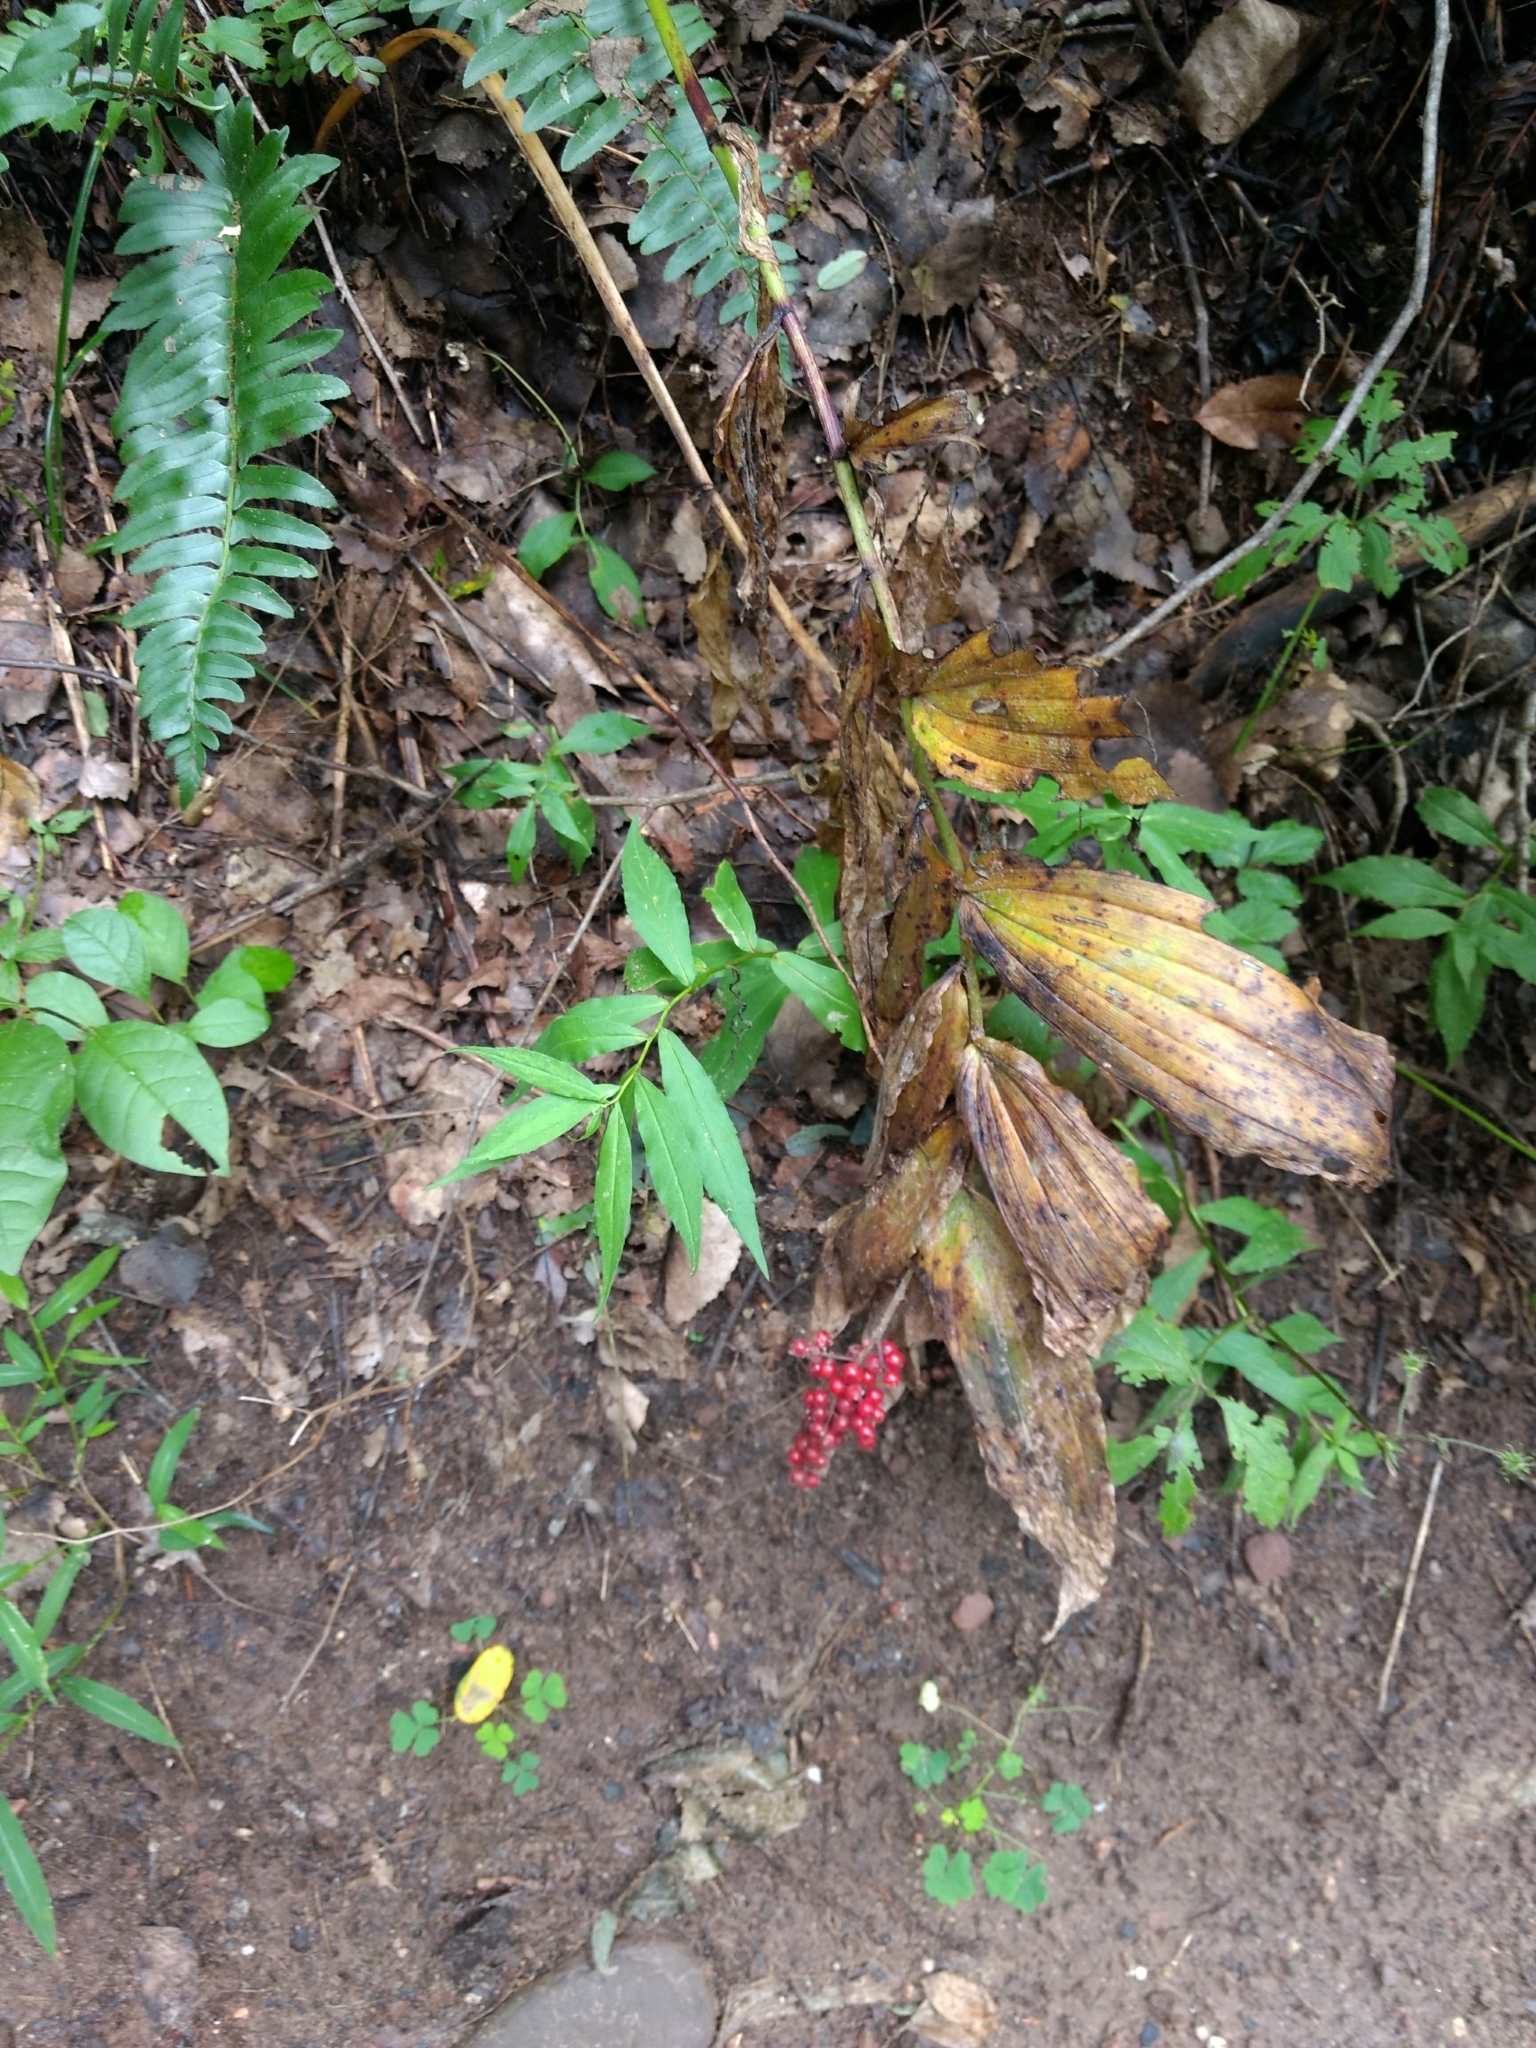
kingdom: Plantae
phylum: Tracheophyta
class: Liliopsida
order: Asparagales
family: Asparagaceae
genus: Maianthemum
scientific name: Maianthemum racemosum
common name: False spikenard
